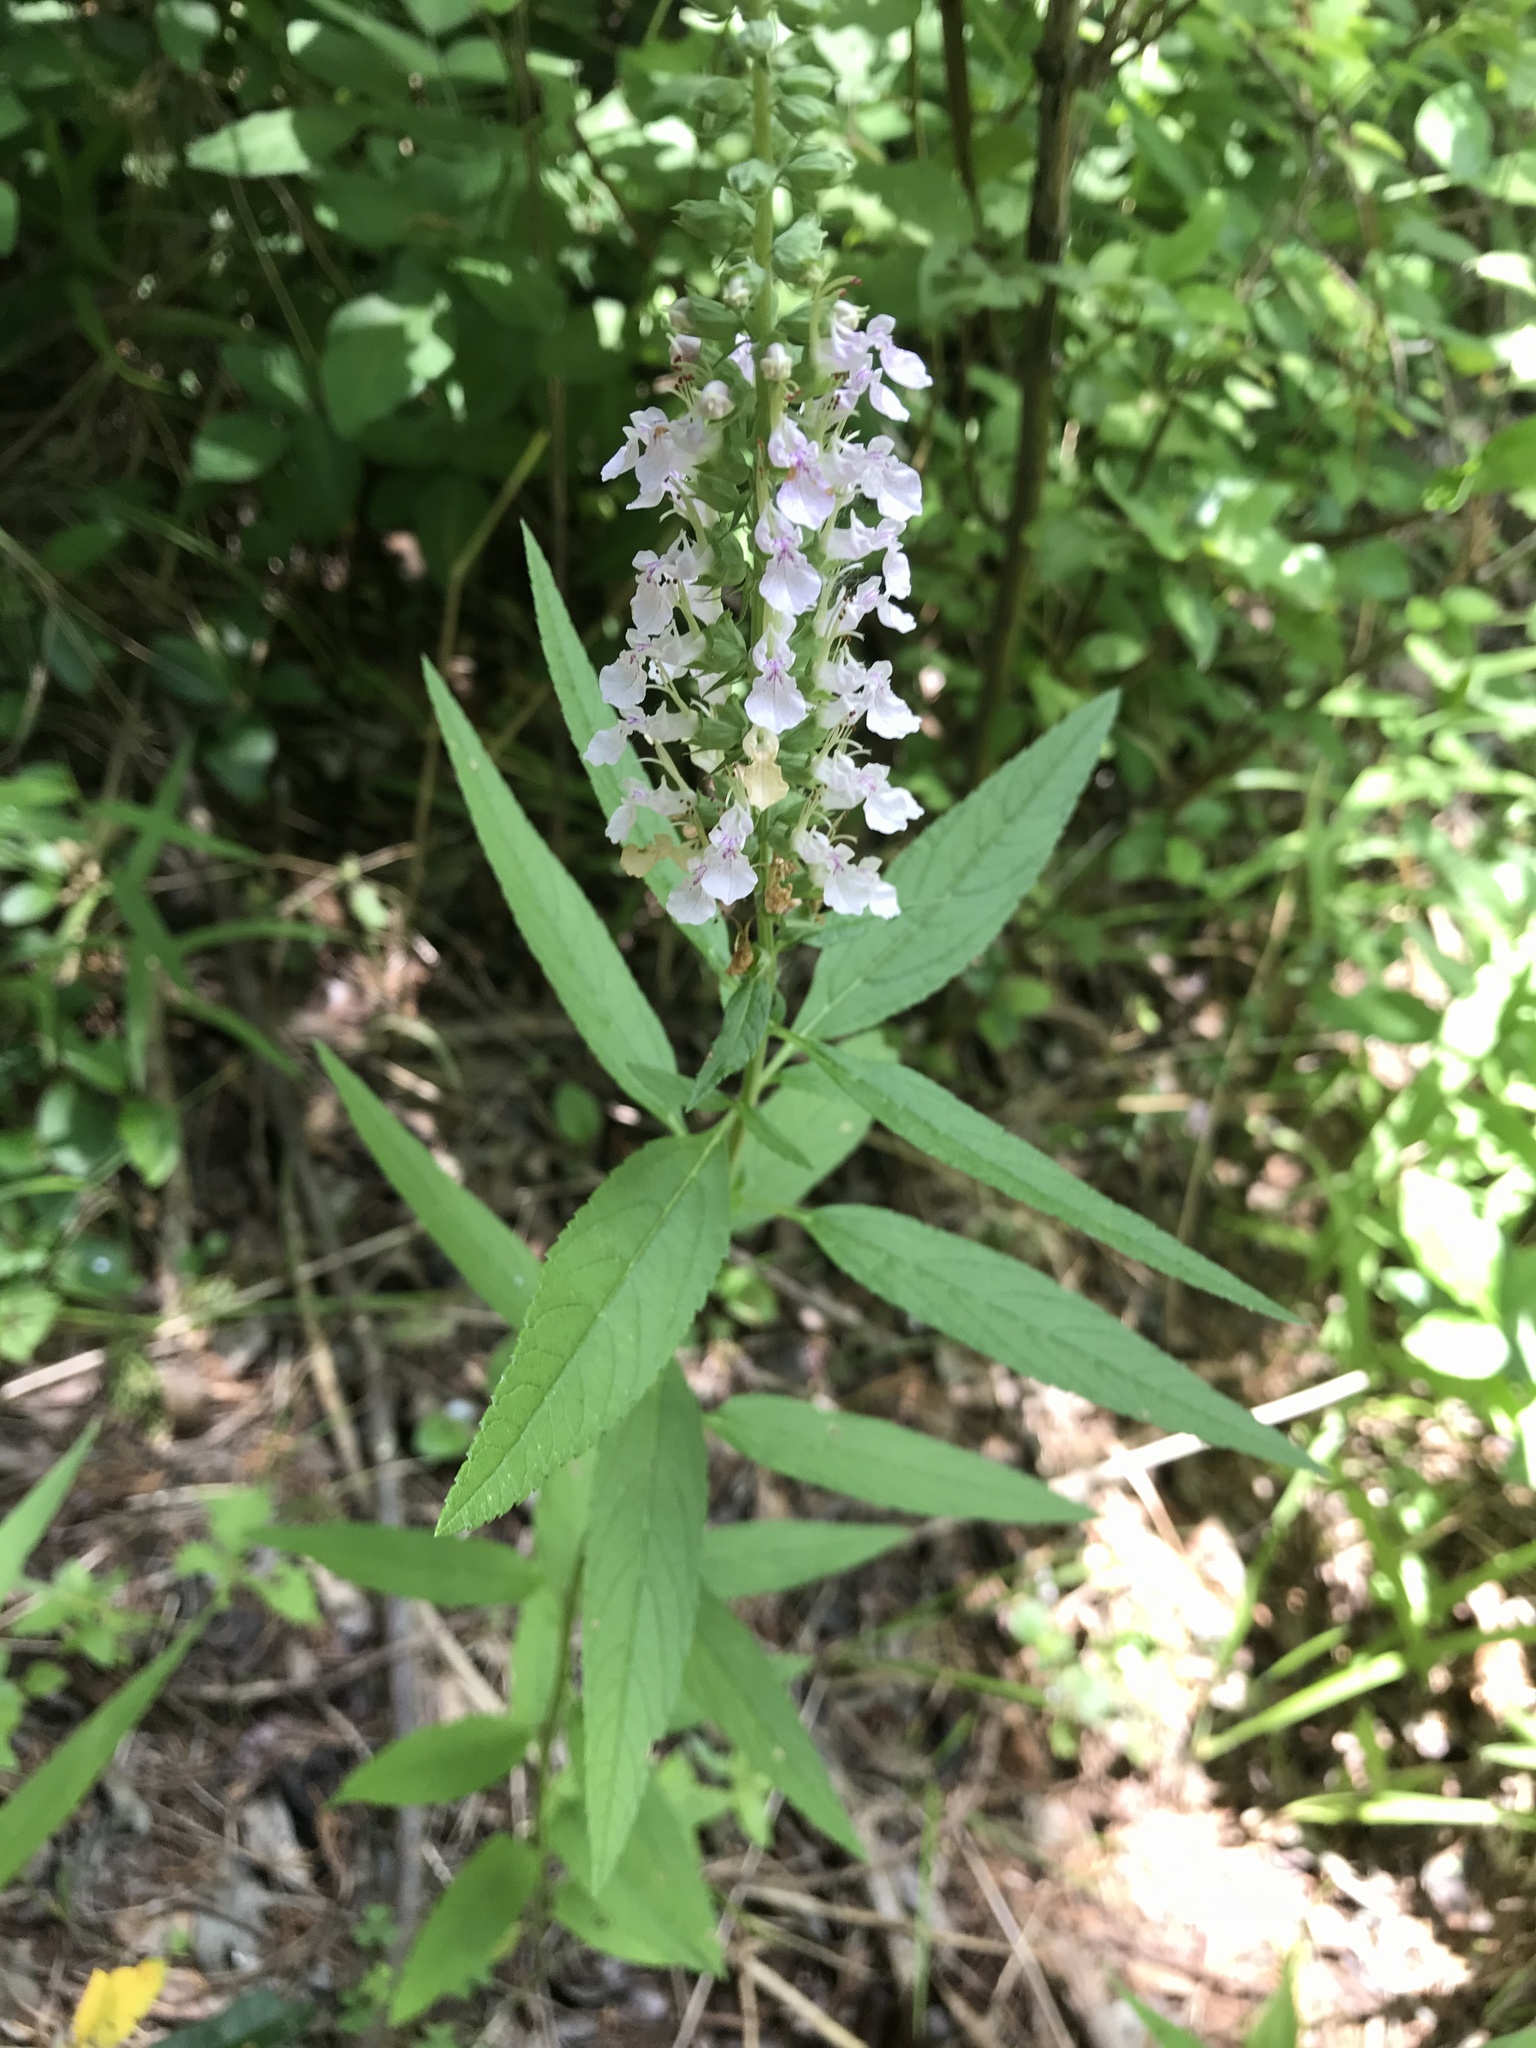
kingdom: Plantae
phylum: Tracheophyta
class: Magnoliopsida
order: Lamiales
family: Lamiaceae
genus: Teucrium
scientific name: Teucrium canadense
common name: American germander
